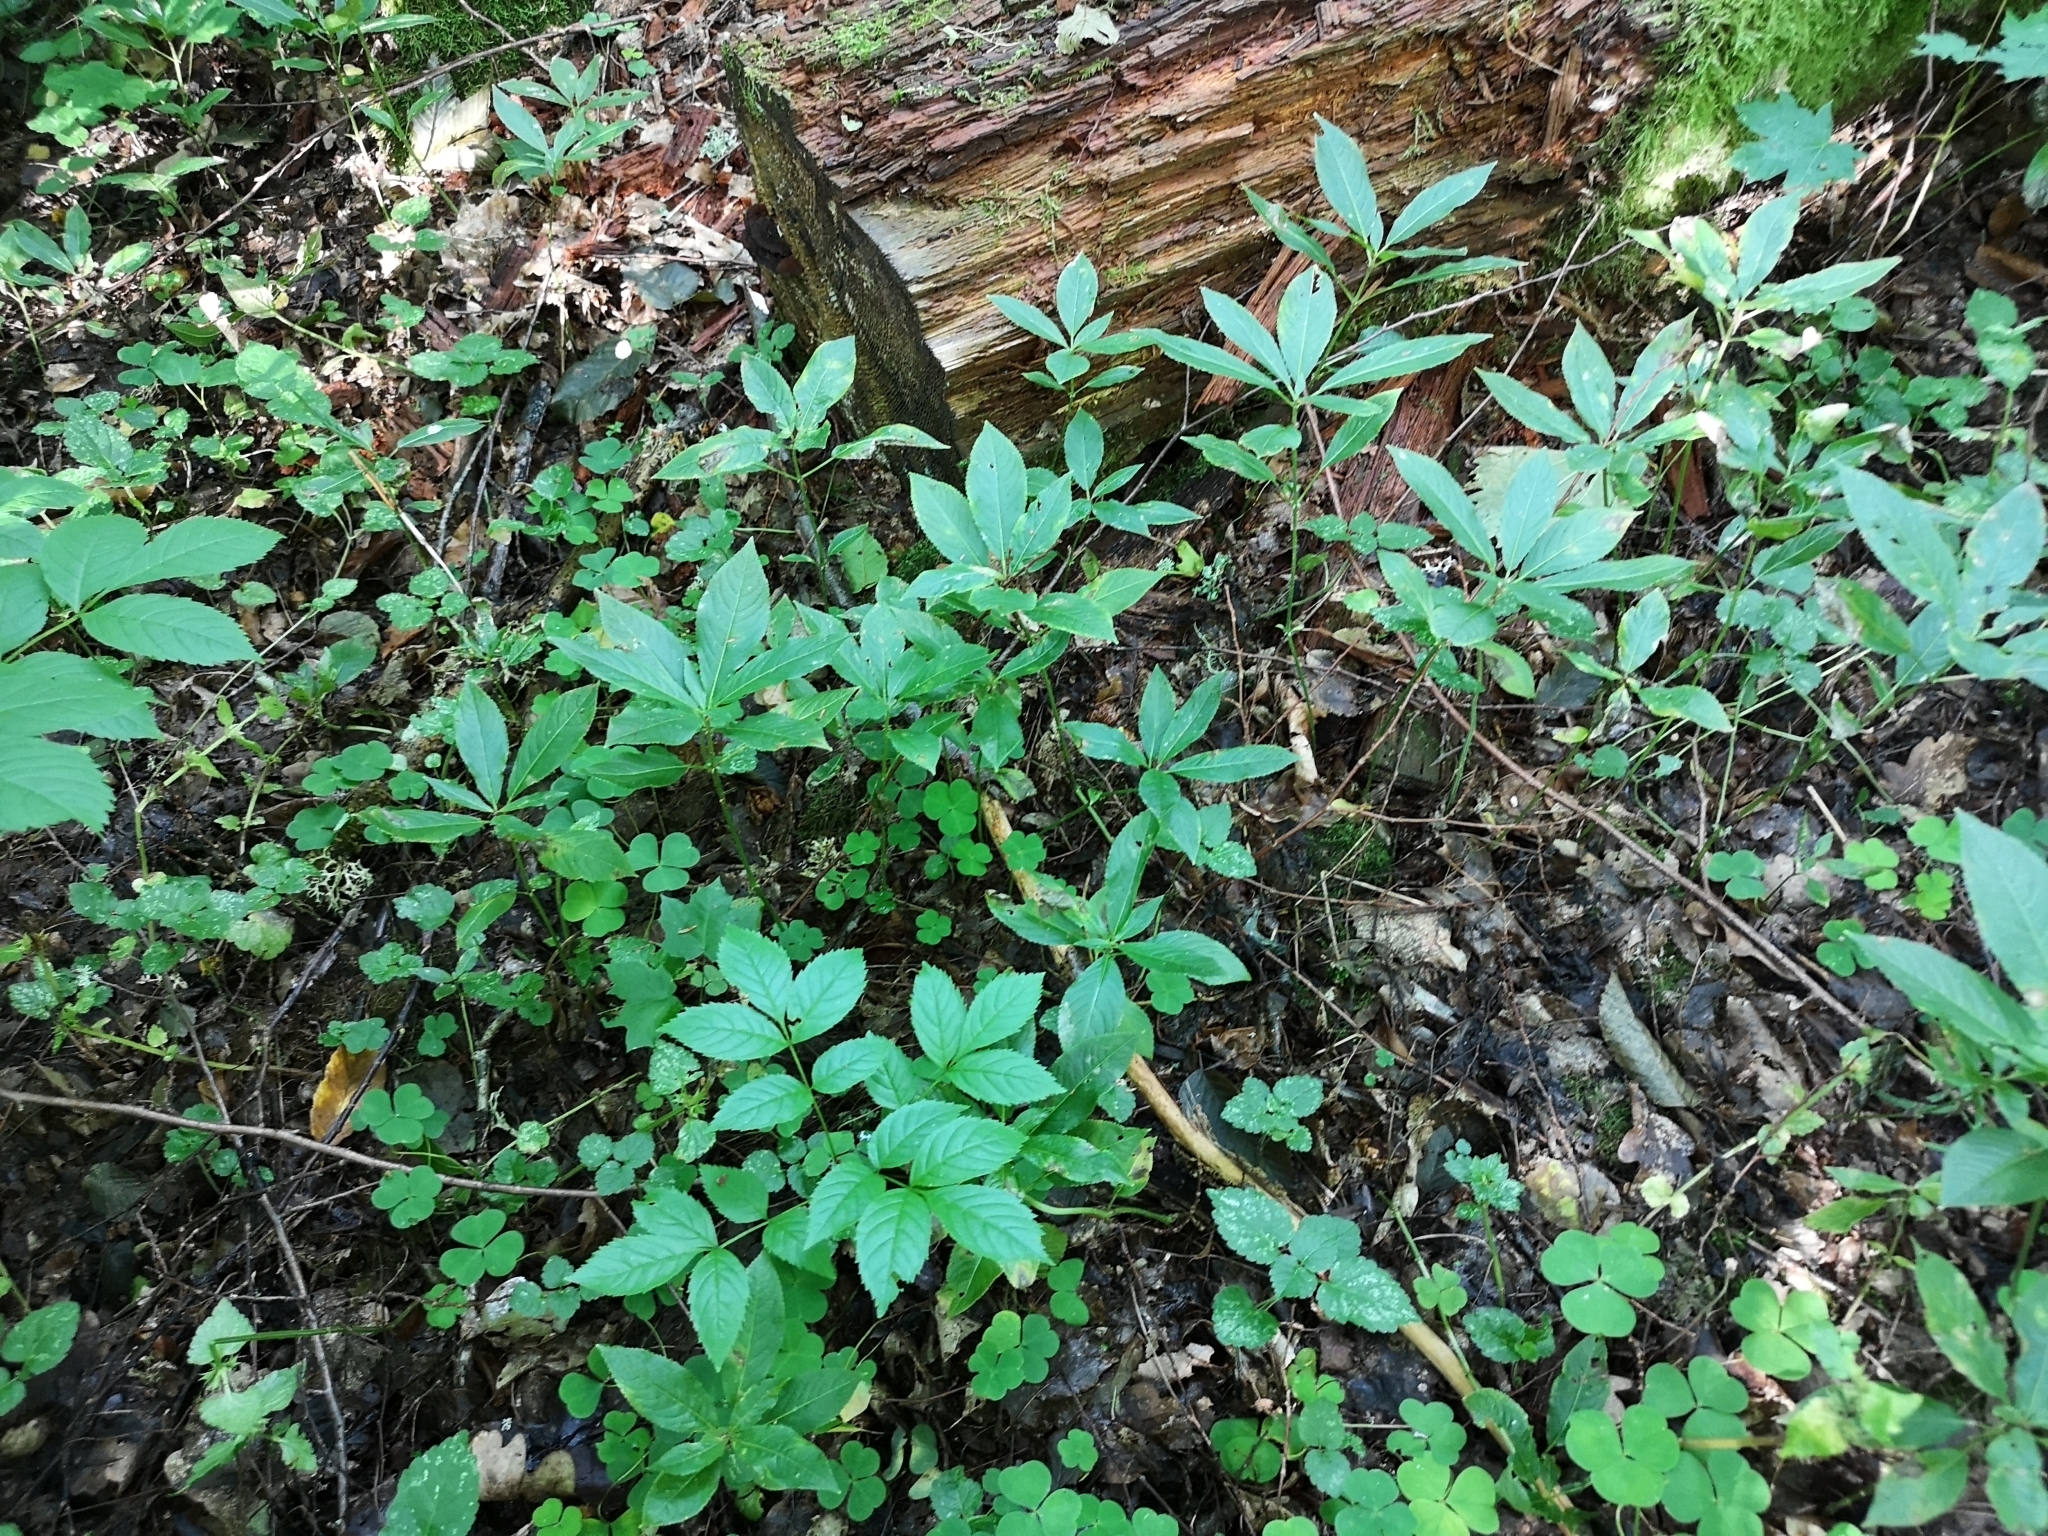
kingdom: Plantae
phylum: Tracheophyta
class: Magnoliopsida
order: Malpighiales
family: Euphorbiaceae
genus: Mercurialis
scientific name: Mercurialis perennis
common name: Dog mercury
